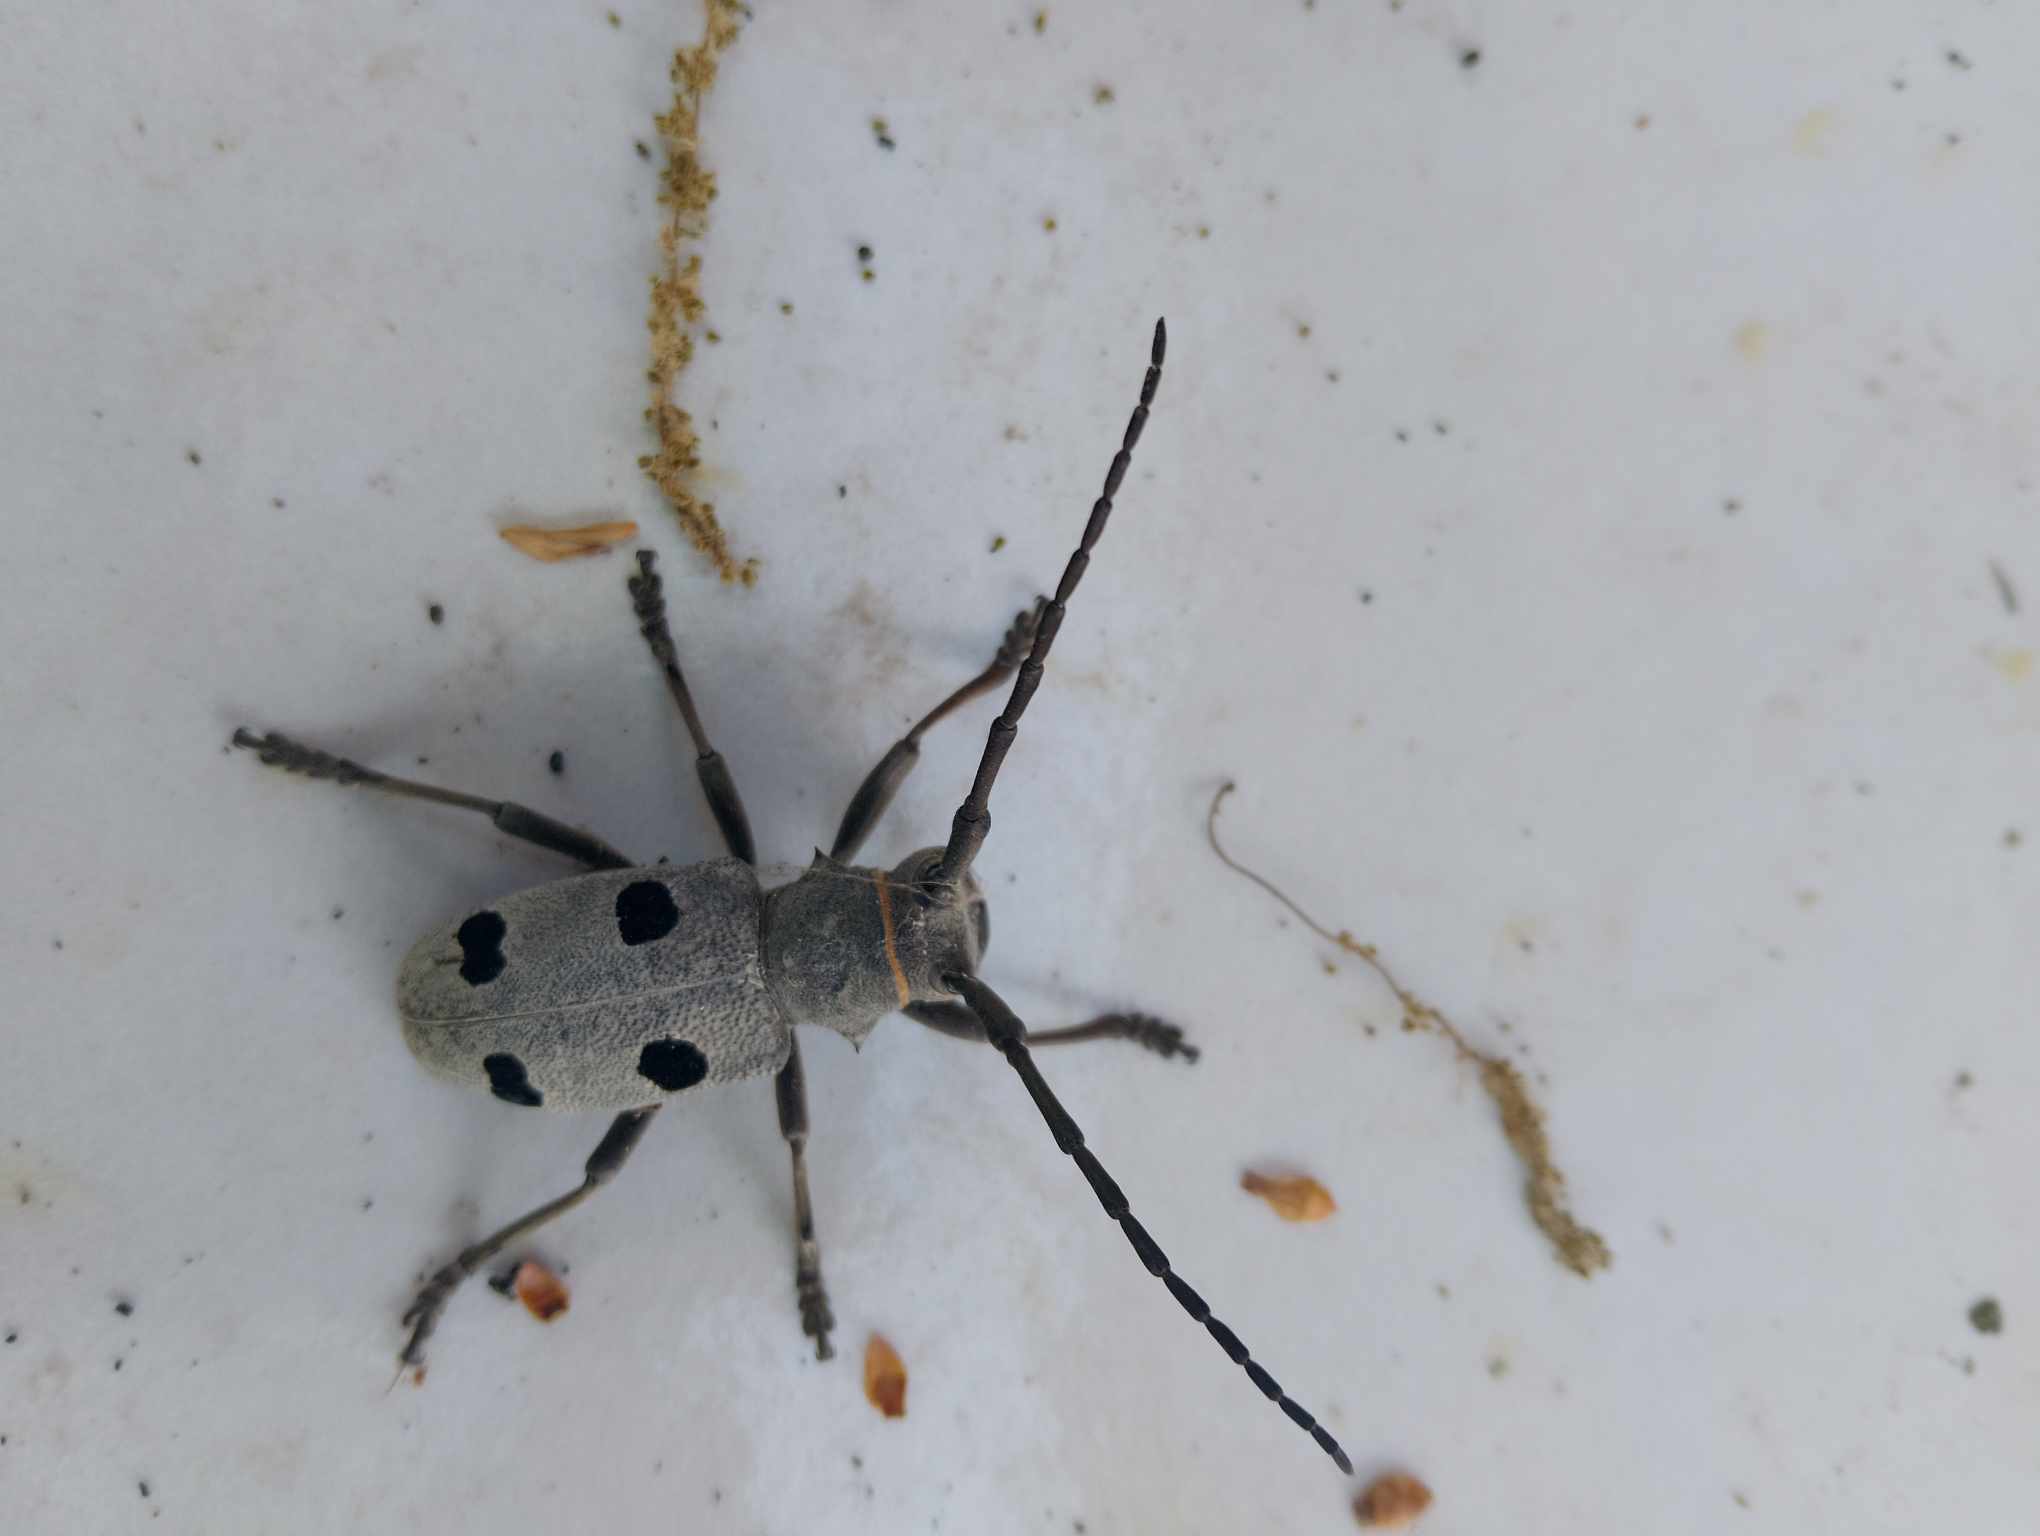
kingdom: Animalia
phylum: Arthropoda
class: Insecta
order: Coleoptera
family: Cerambycidae
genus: Morimus
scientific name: Morimus funereus
